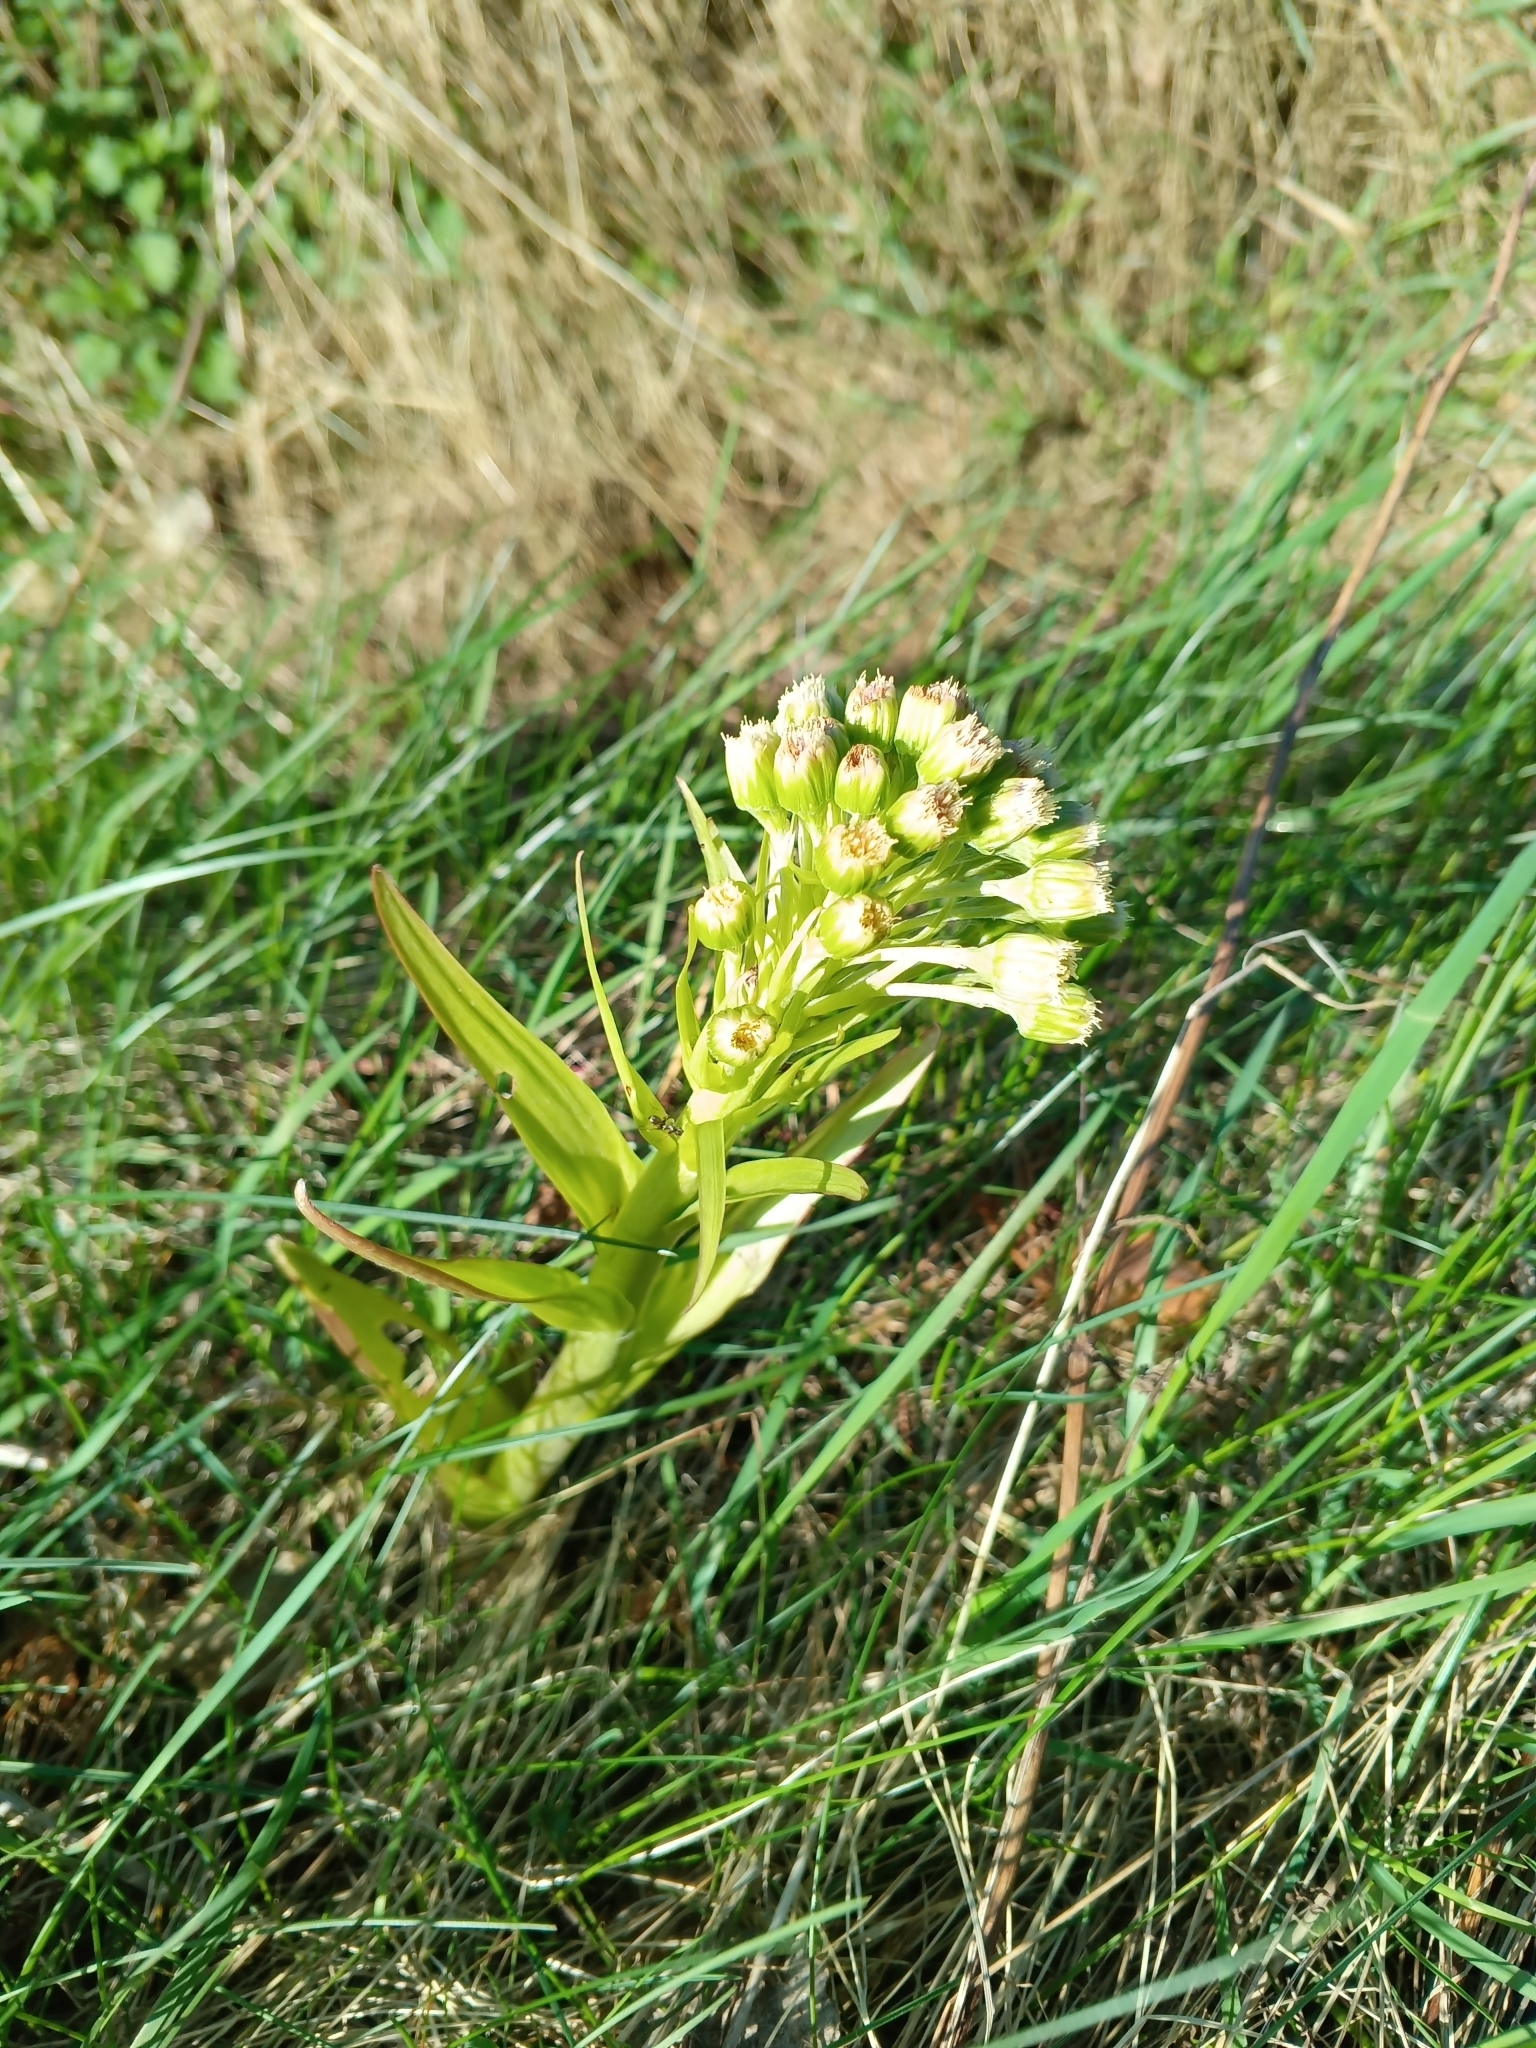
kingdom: Plantae
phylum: Tracheophyta
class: Magnoliopsida
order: Asterales
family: Asteraceae
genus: Petasites
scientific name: Petasites spurius
